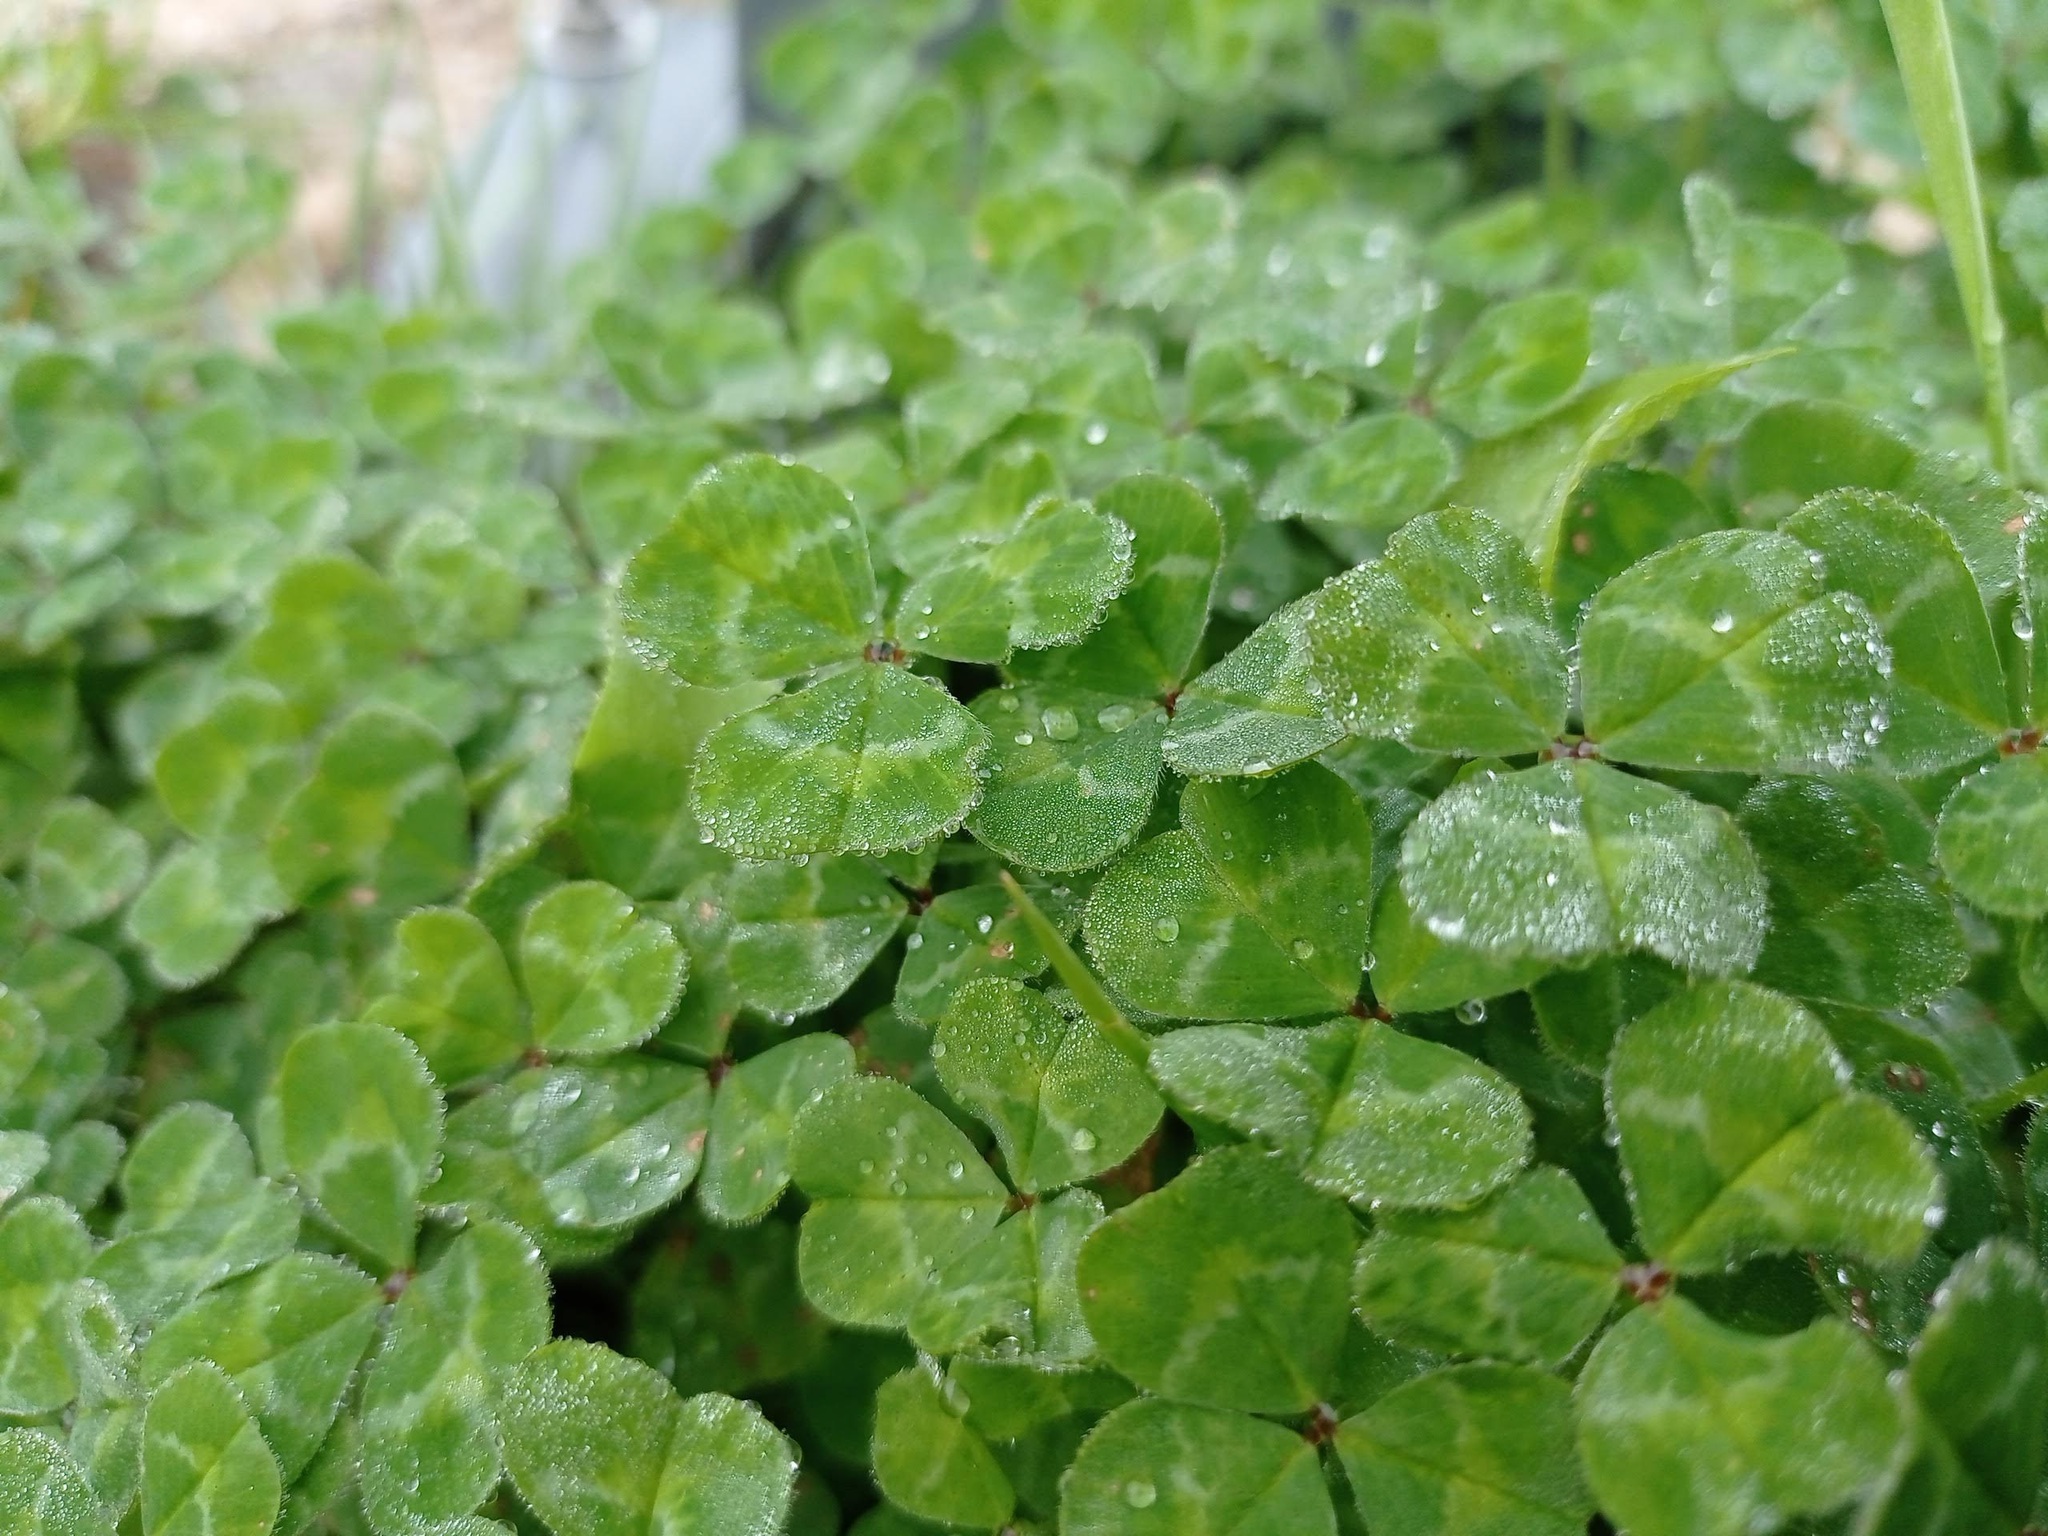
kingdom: Plantae
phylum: Tracheophyta
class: Magnoliopsida
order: Fabales
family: Fabaceae
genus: Trifolium
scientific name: Trifolium subterraneum
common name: Subterranean clover
